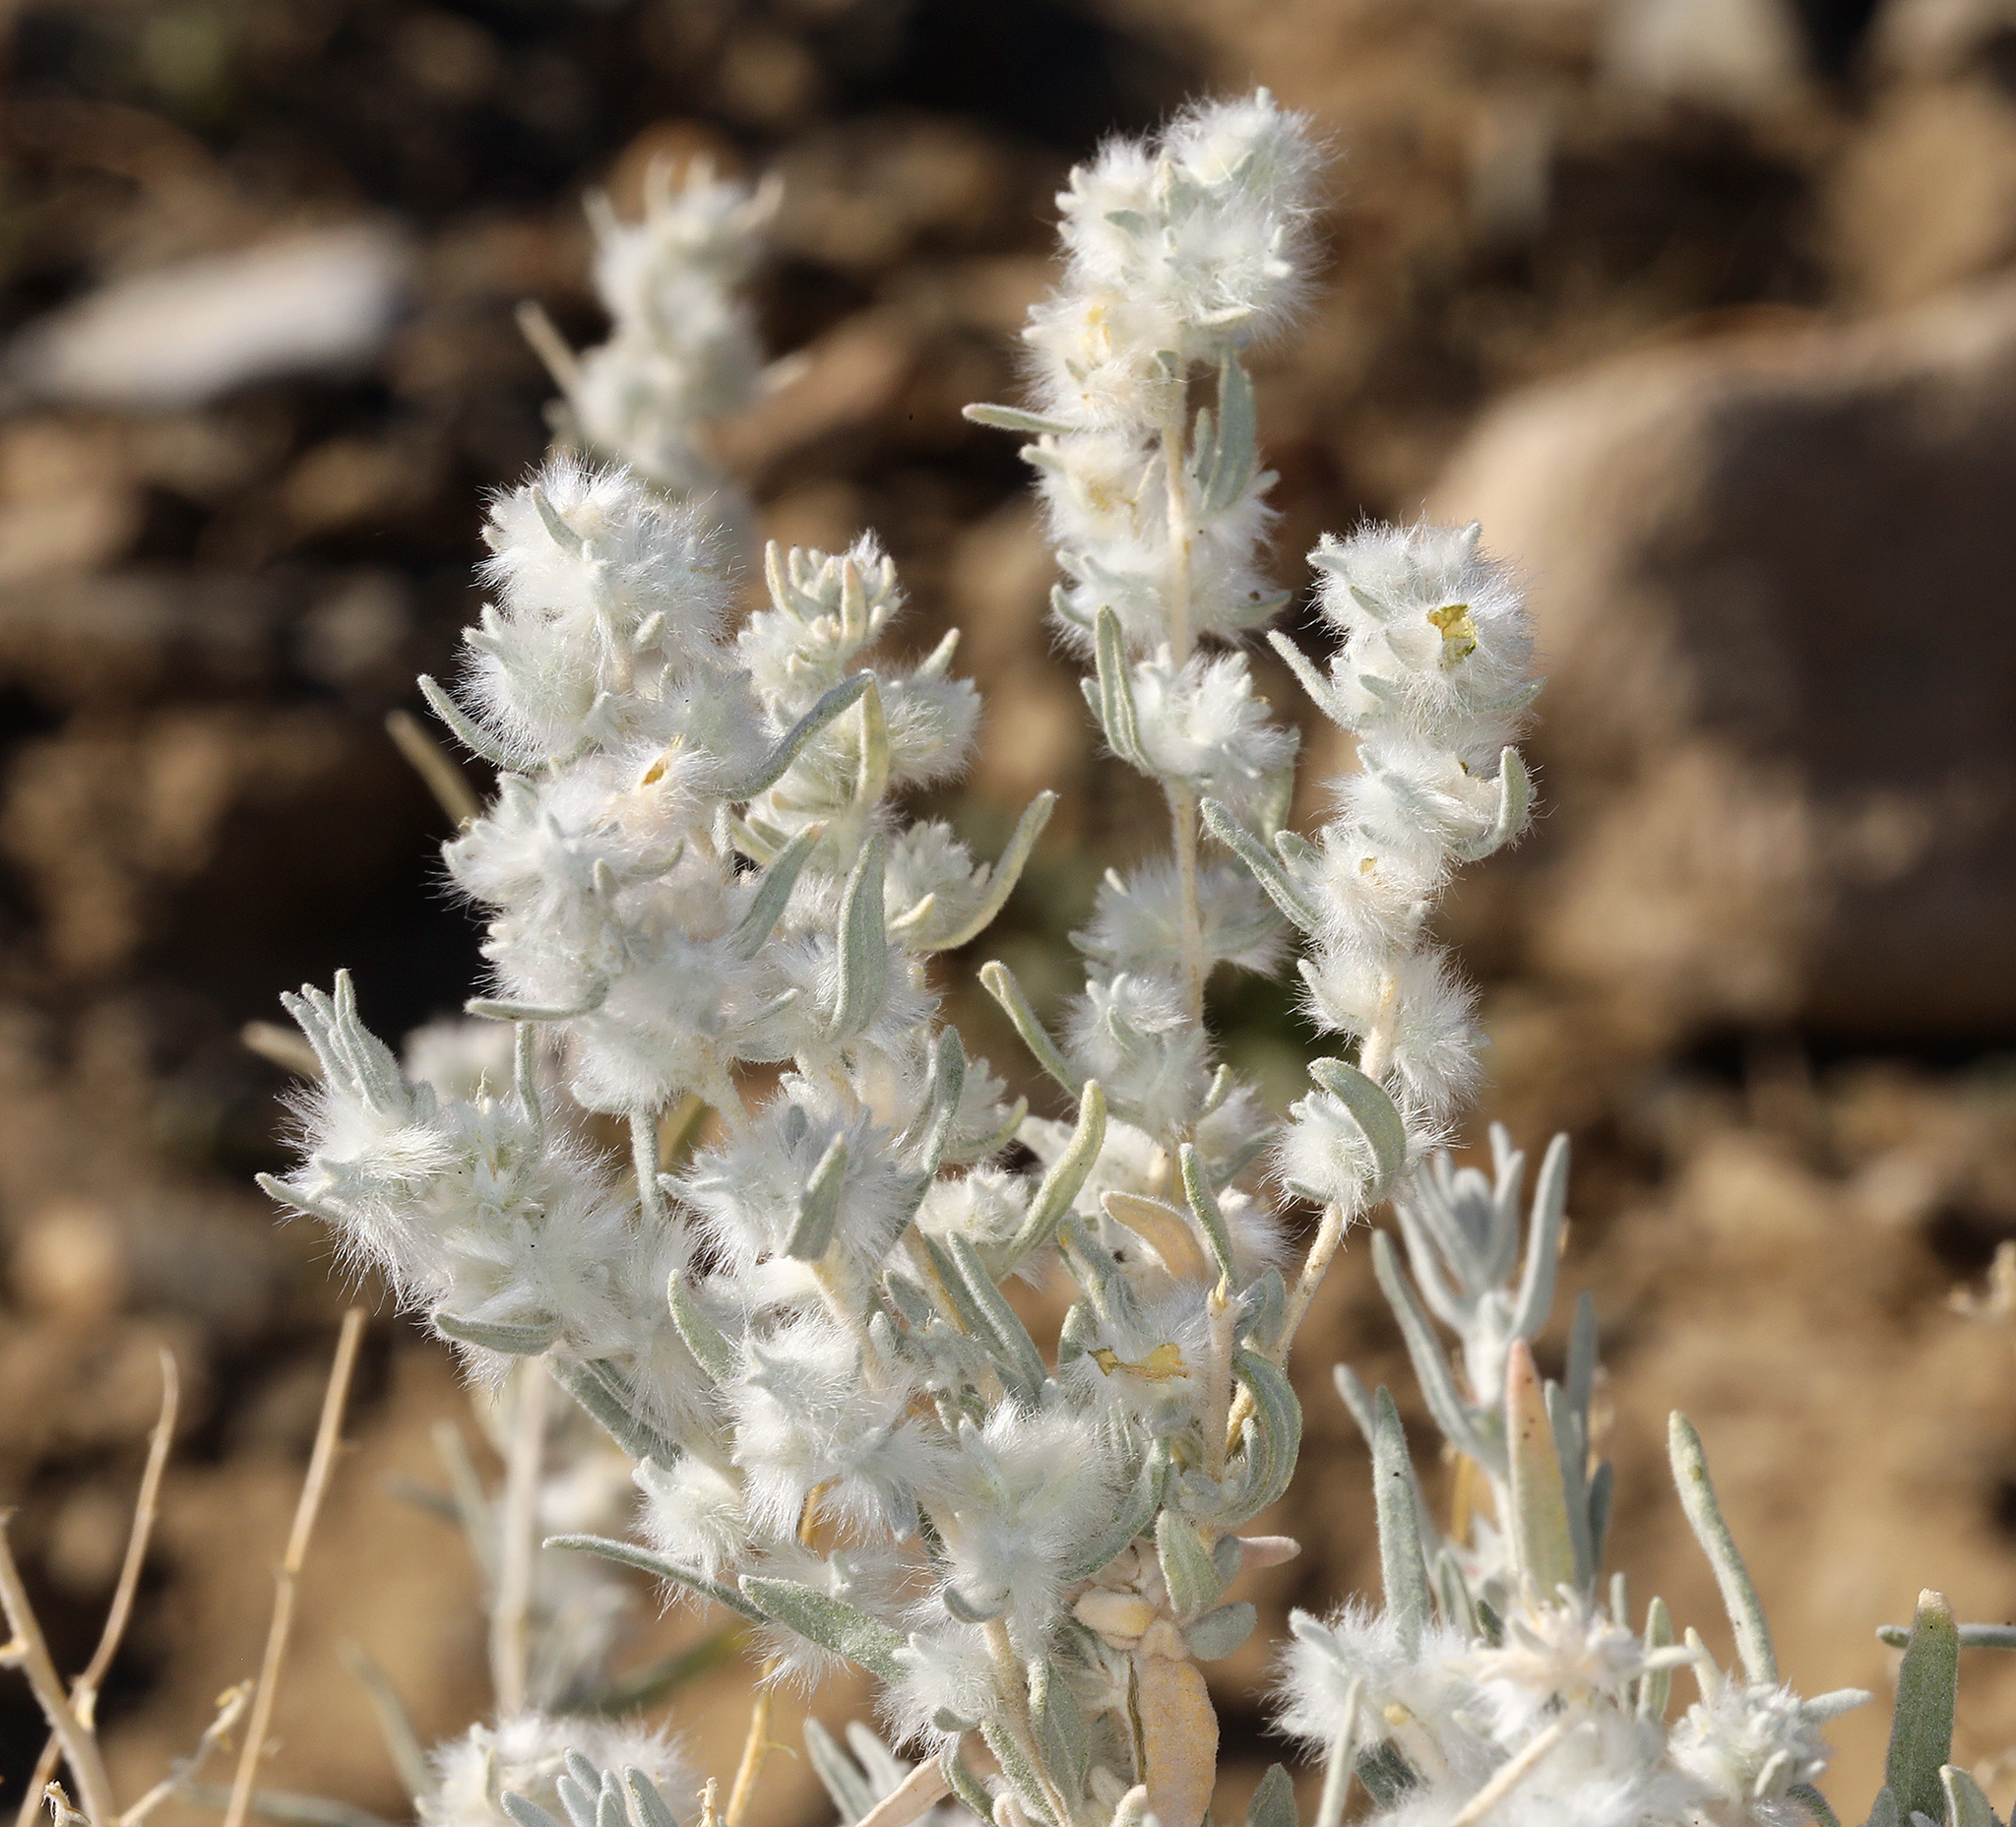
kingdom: Plantae
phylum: Tracheophyta
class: Magnoliopsida
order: Caryophyllales
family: Amaranthaceae
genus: Krascheninnikovia
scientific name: Krascheninnikovia lanata
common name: Winterfat
